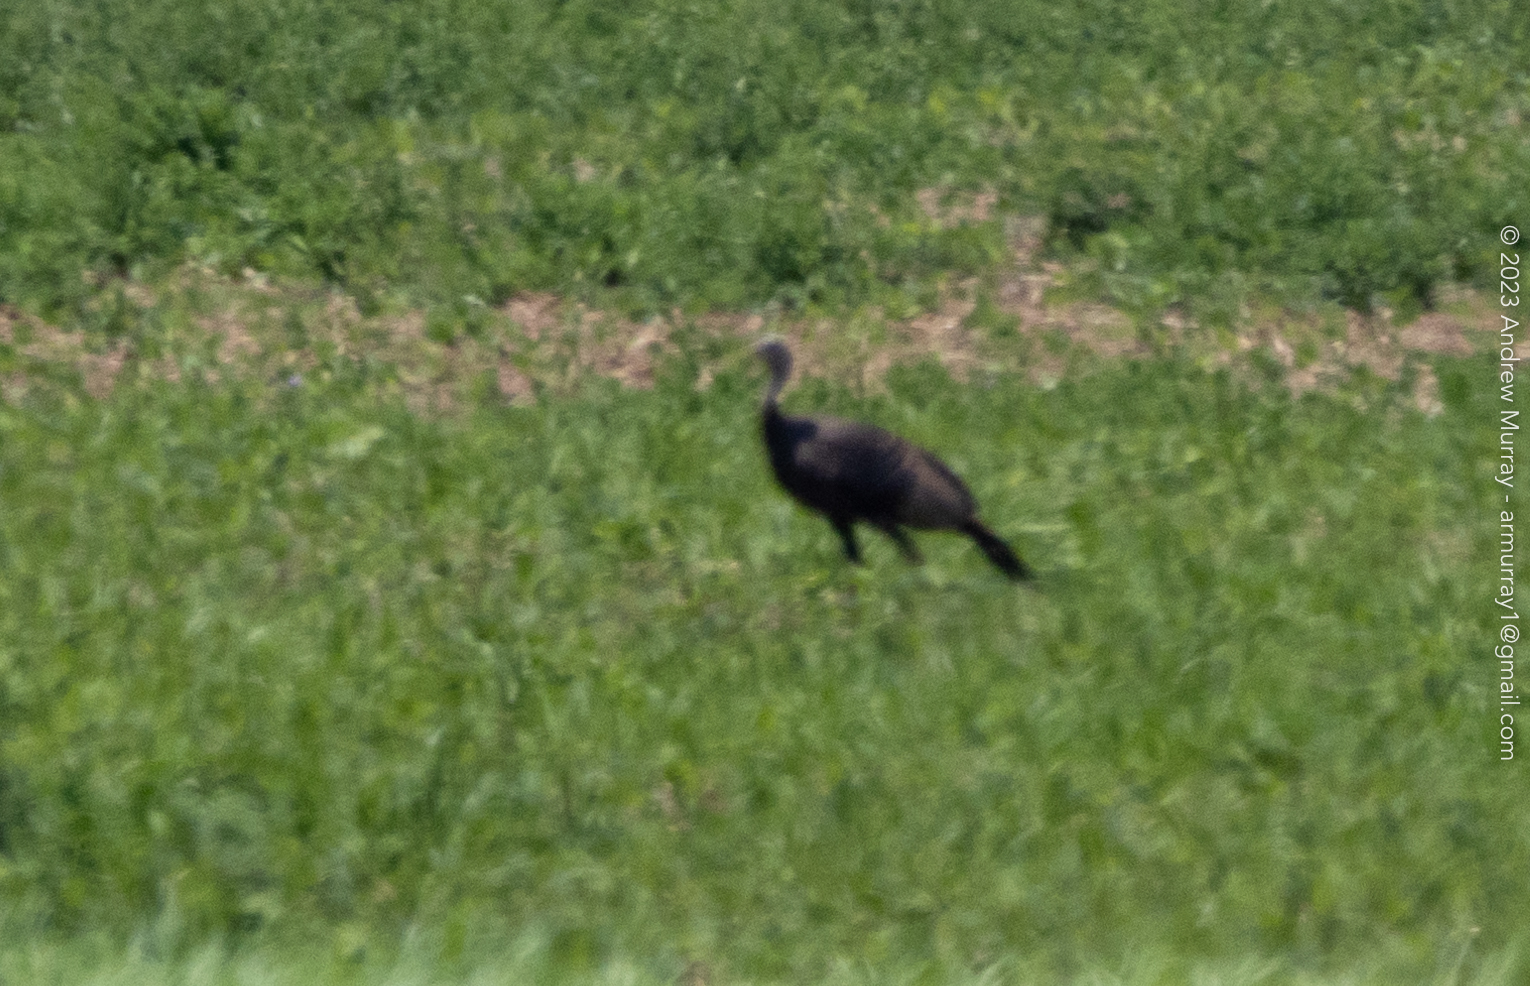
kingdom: Animalia
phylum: Chordata
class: Aves
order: Galliformes
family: Phasianidae
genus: Meleagris
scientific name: Meleagris gallopavo
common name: Wild turkey
